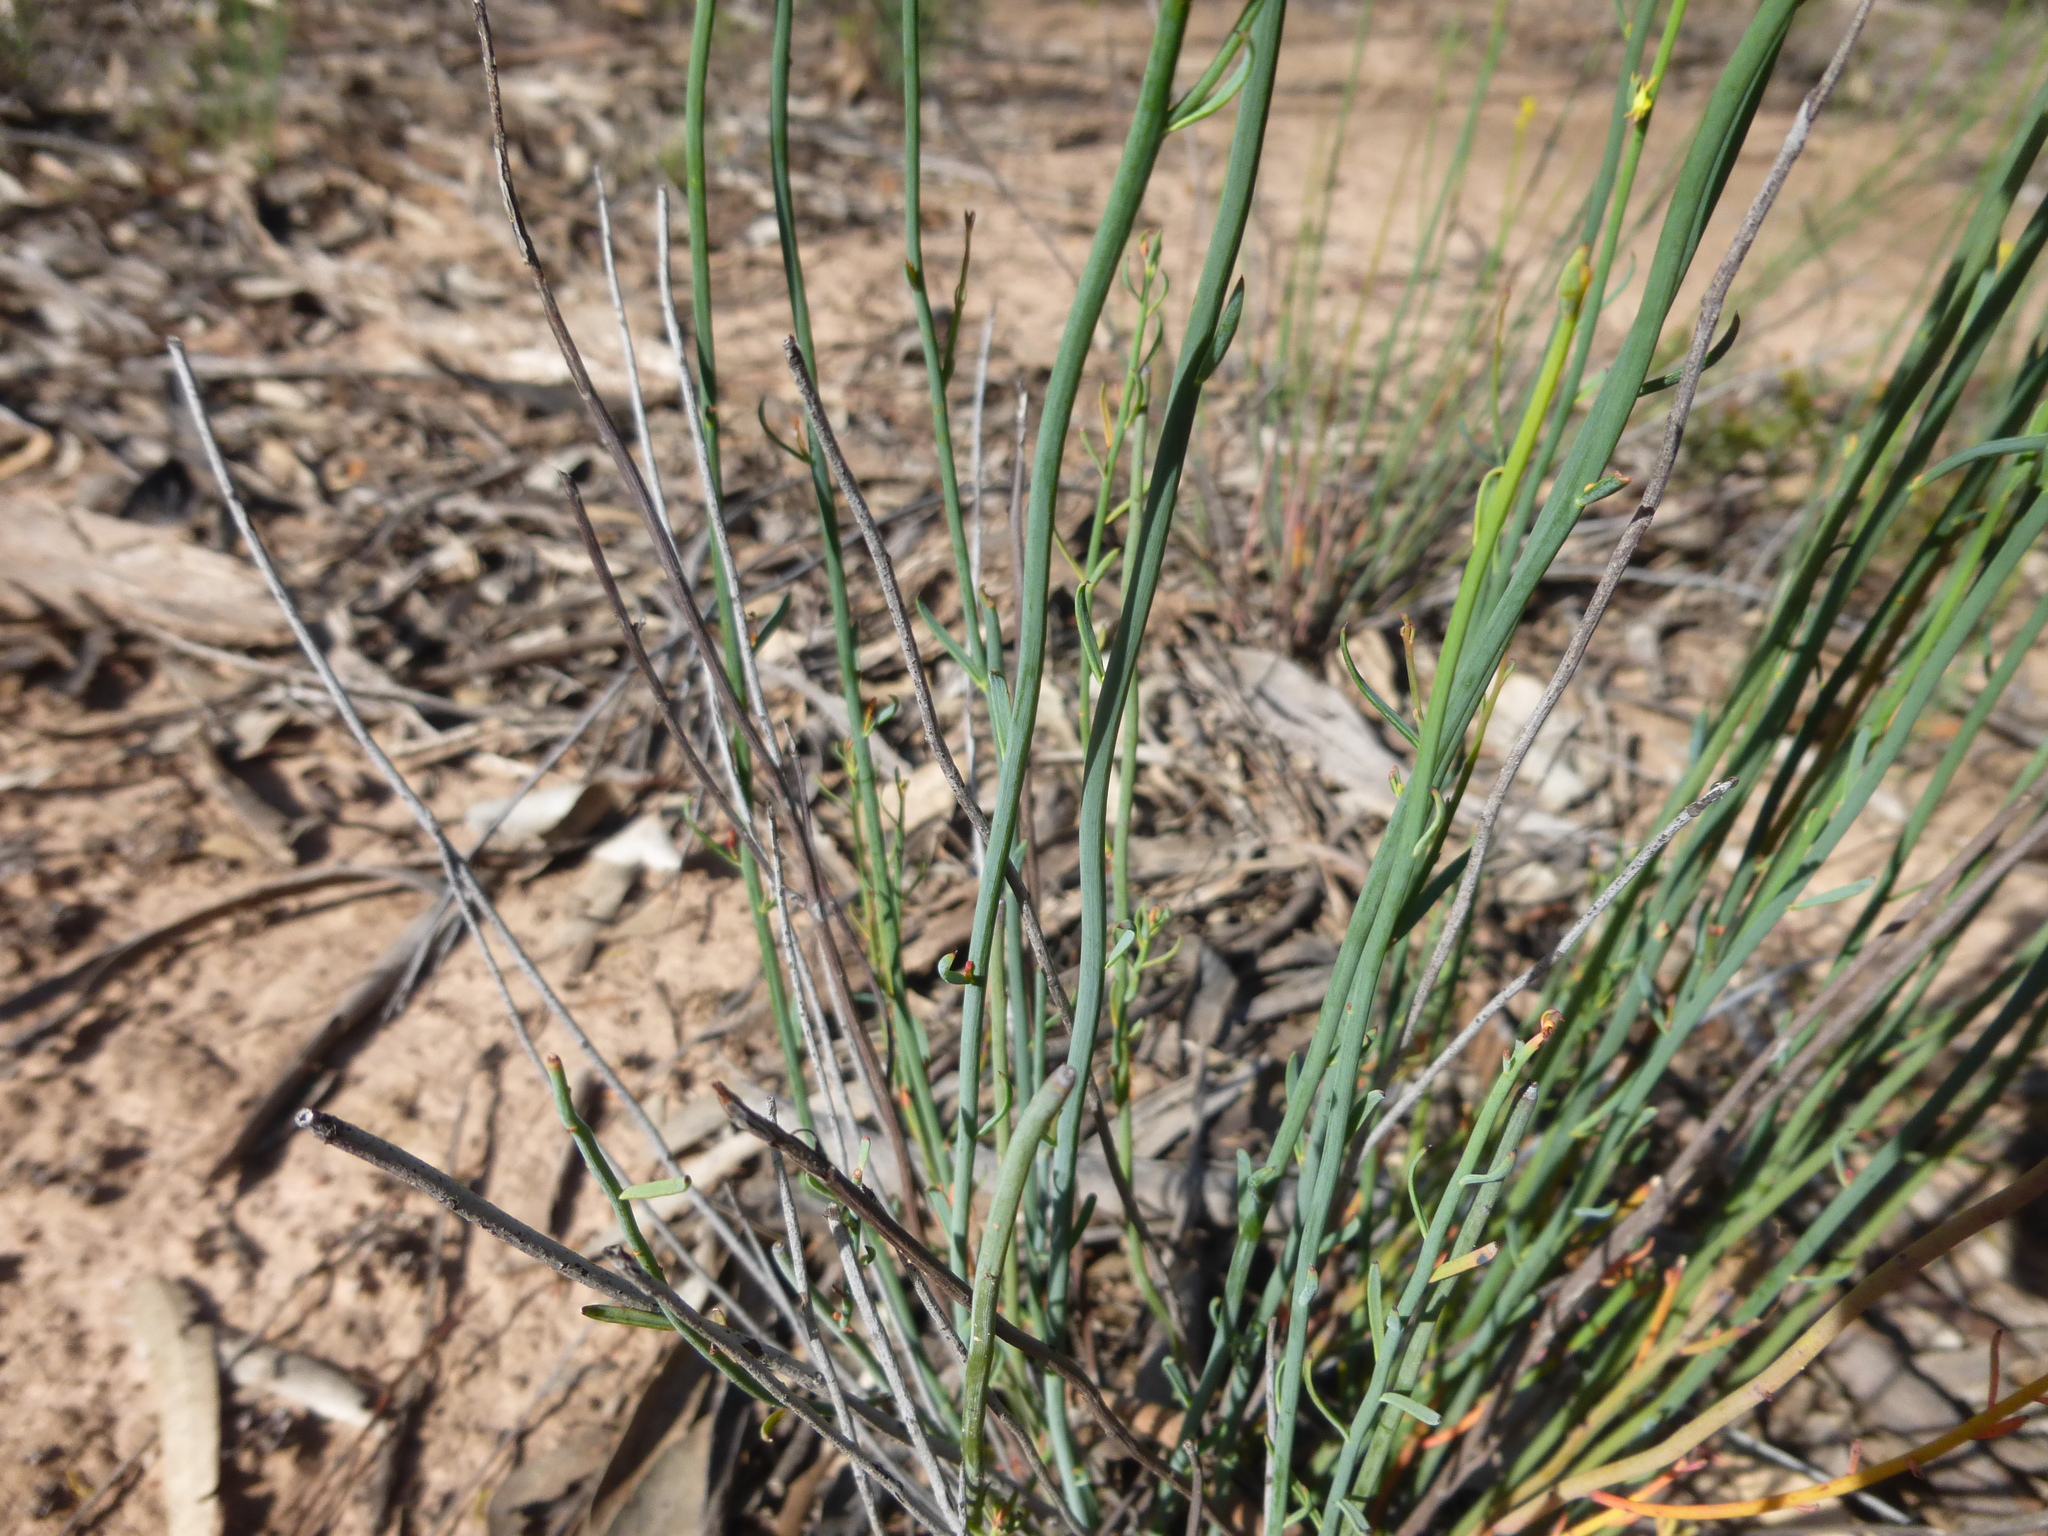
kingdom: Plantae
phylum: Tracheophyta
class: Magnoliopsida
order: Saxifragales
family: Haloragaceae
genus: Glischrocaryon
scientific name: Glischrocaryon behrii
